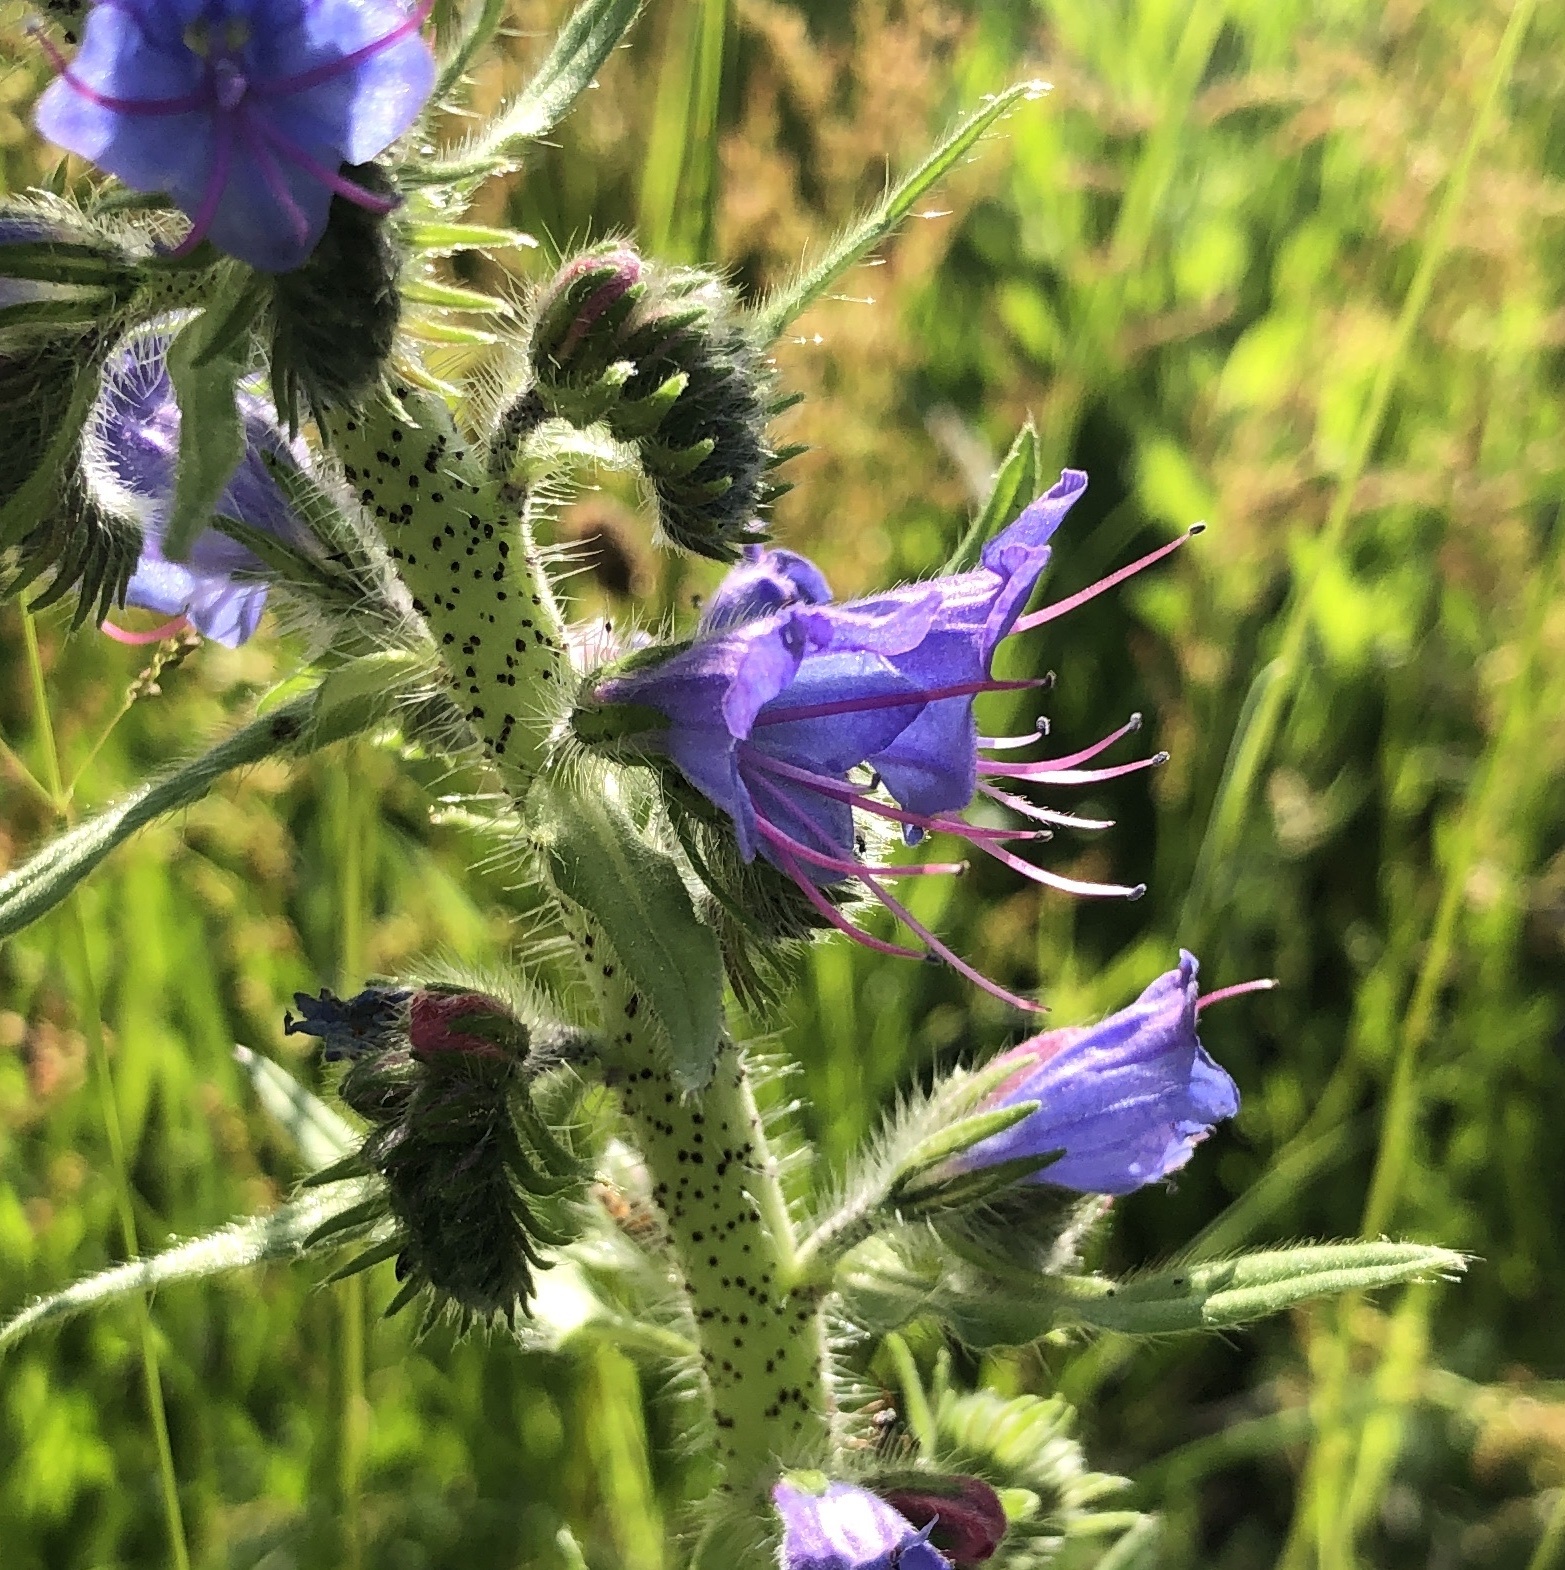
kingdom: Plantae
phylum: Tracheophyta
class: Magnoliopsida
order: Boraginales
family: Boraginaceae
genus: Echium
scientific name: Echium vulgare
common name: Common viper's bugloss
